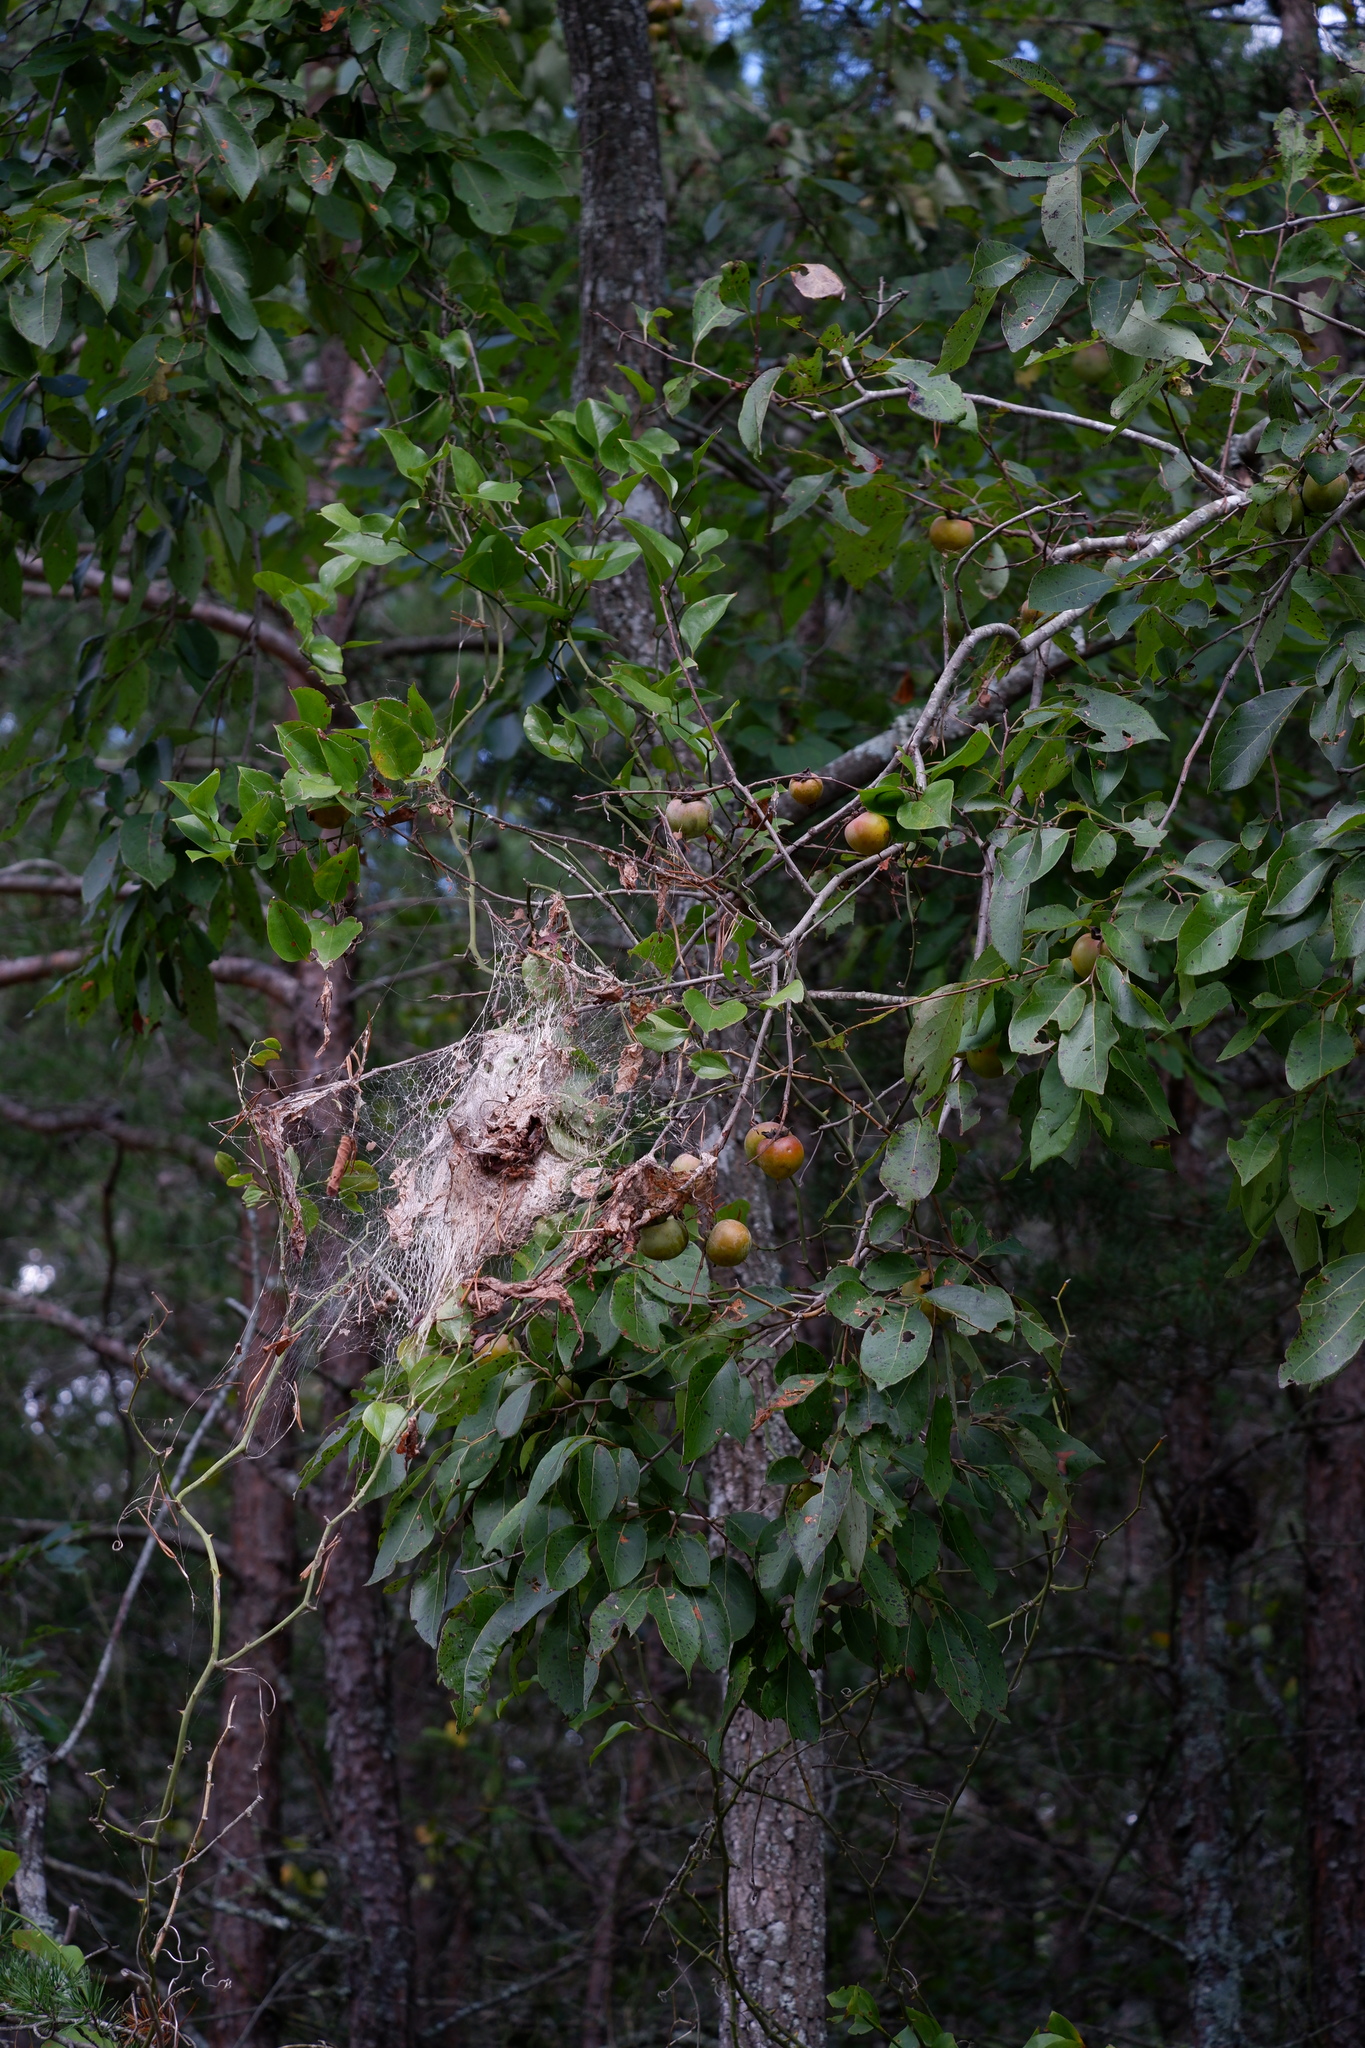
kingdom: Plantae
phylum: Tracheophyta
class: Magnoliopsida
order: Ericales
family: Ebenaceae
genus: Diospyros
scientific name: Diospyros virginiana
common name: Persimmon
